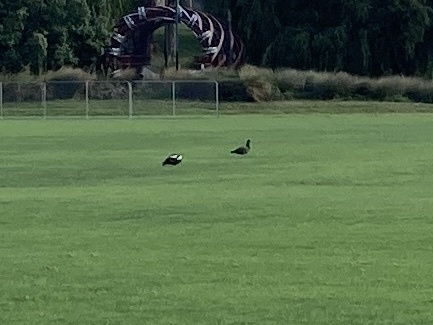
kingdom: Animalia
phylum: Chordata
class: Aves
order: Anseriformes
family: Anatidae
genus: Tadorna
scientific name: Tadorna variegata
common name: Paradise shelduck
